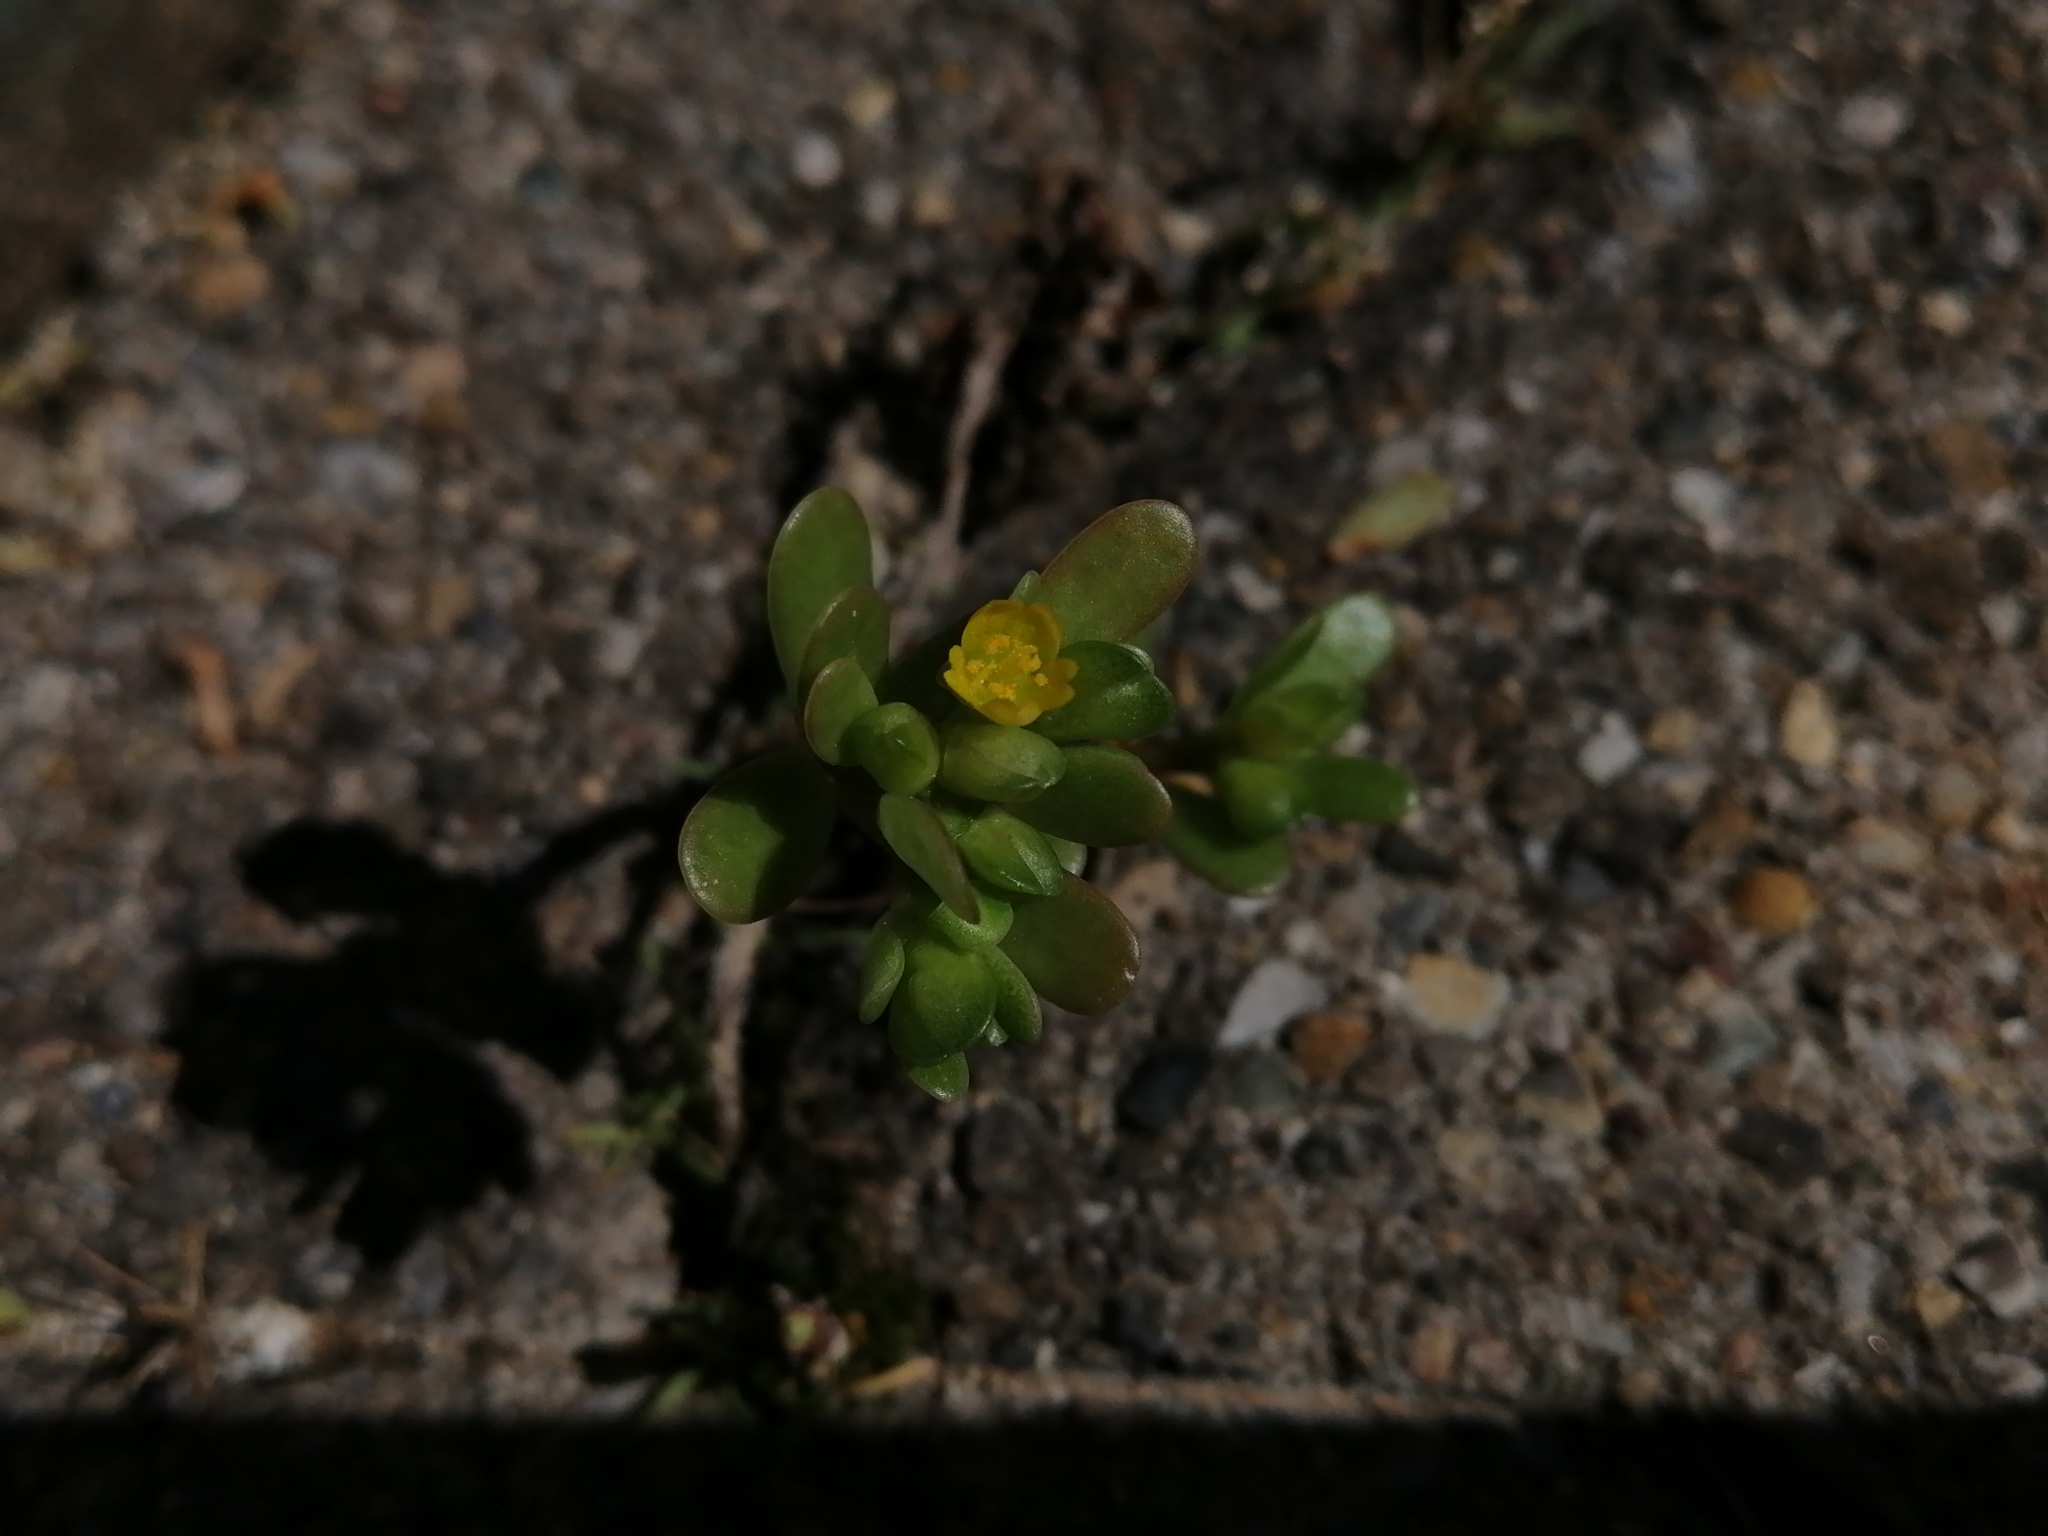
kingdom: Plantae
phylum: Tracheophyta
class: Magnoliopsida
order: Caryophyllales
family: Portulacaceae
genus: Portulaca
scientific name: Portulaca oleracea
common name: Common purslane
